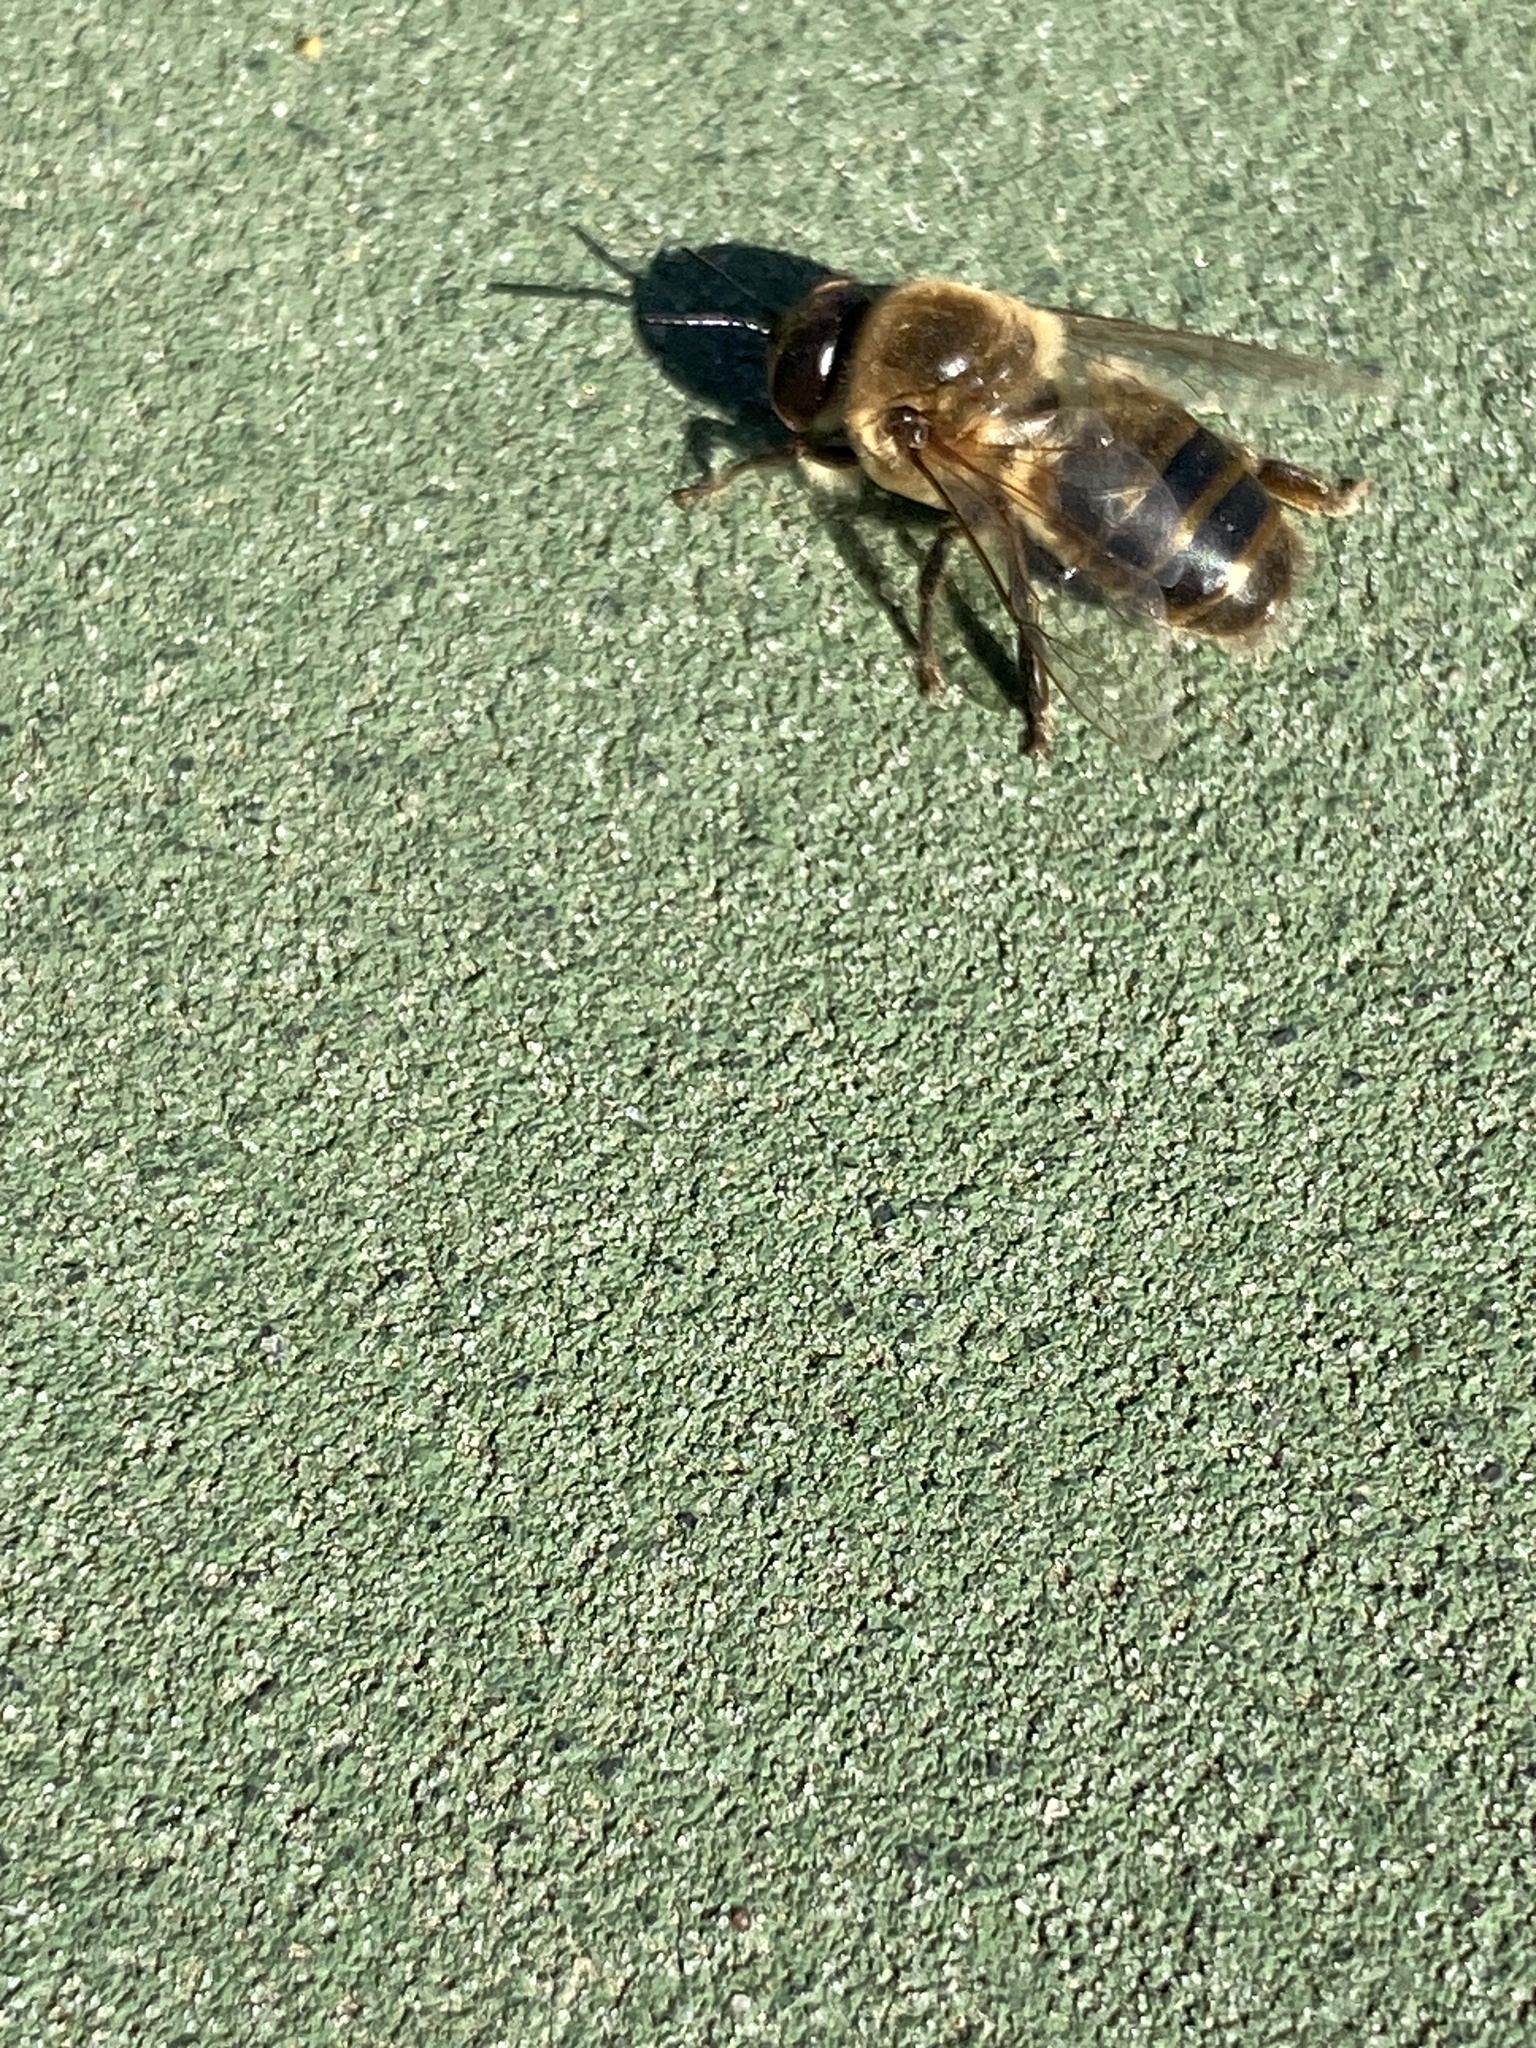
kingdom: Animalia
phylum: Arthropoda
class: Insecta
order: Hymenoptera
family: Apidae
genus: Apis
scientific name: Apis mellifera
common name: Honey bee
